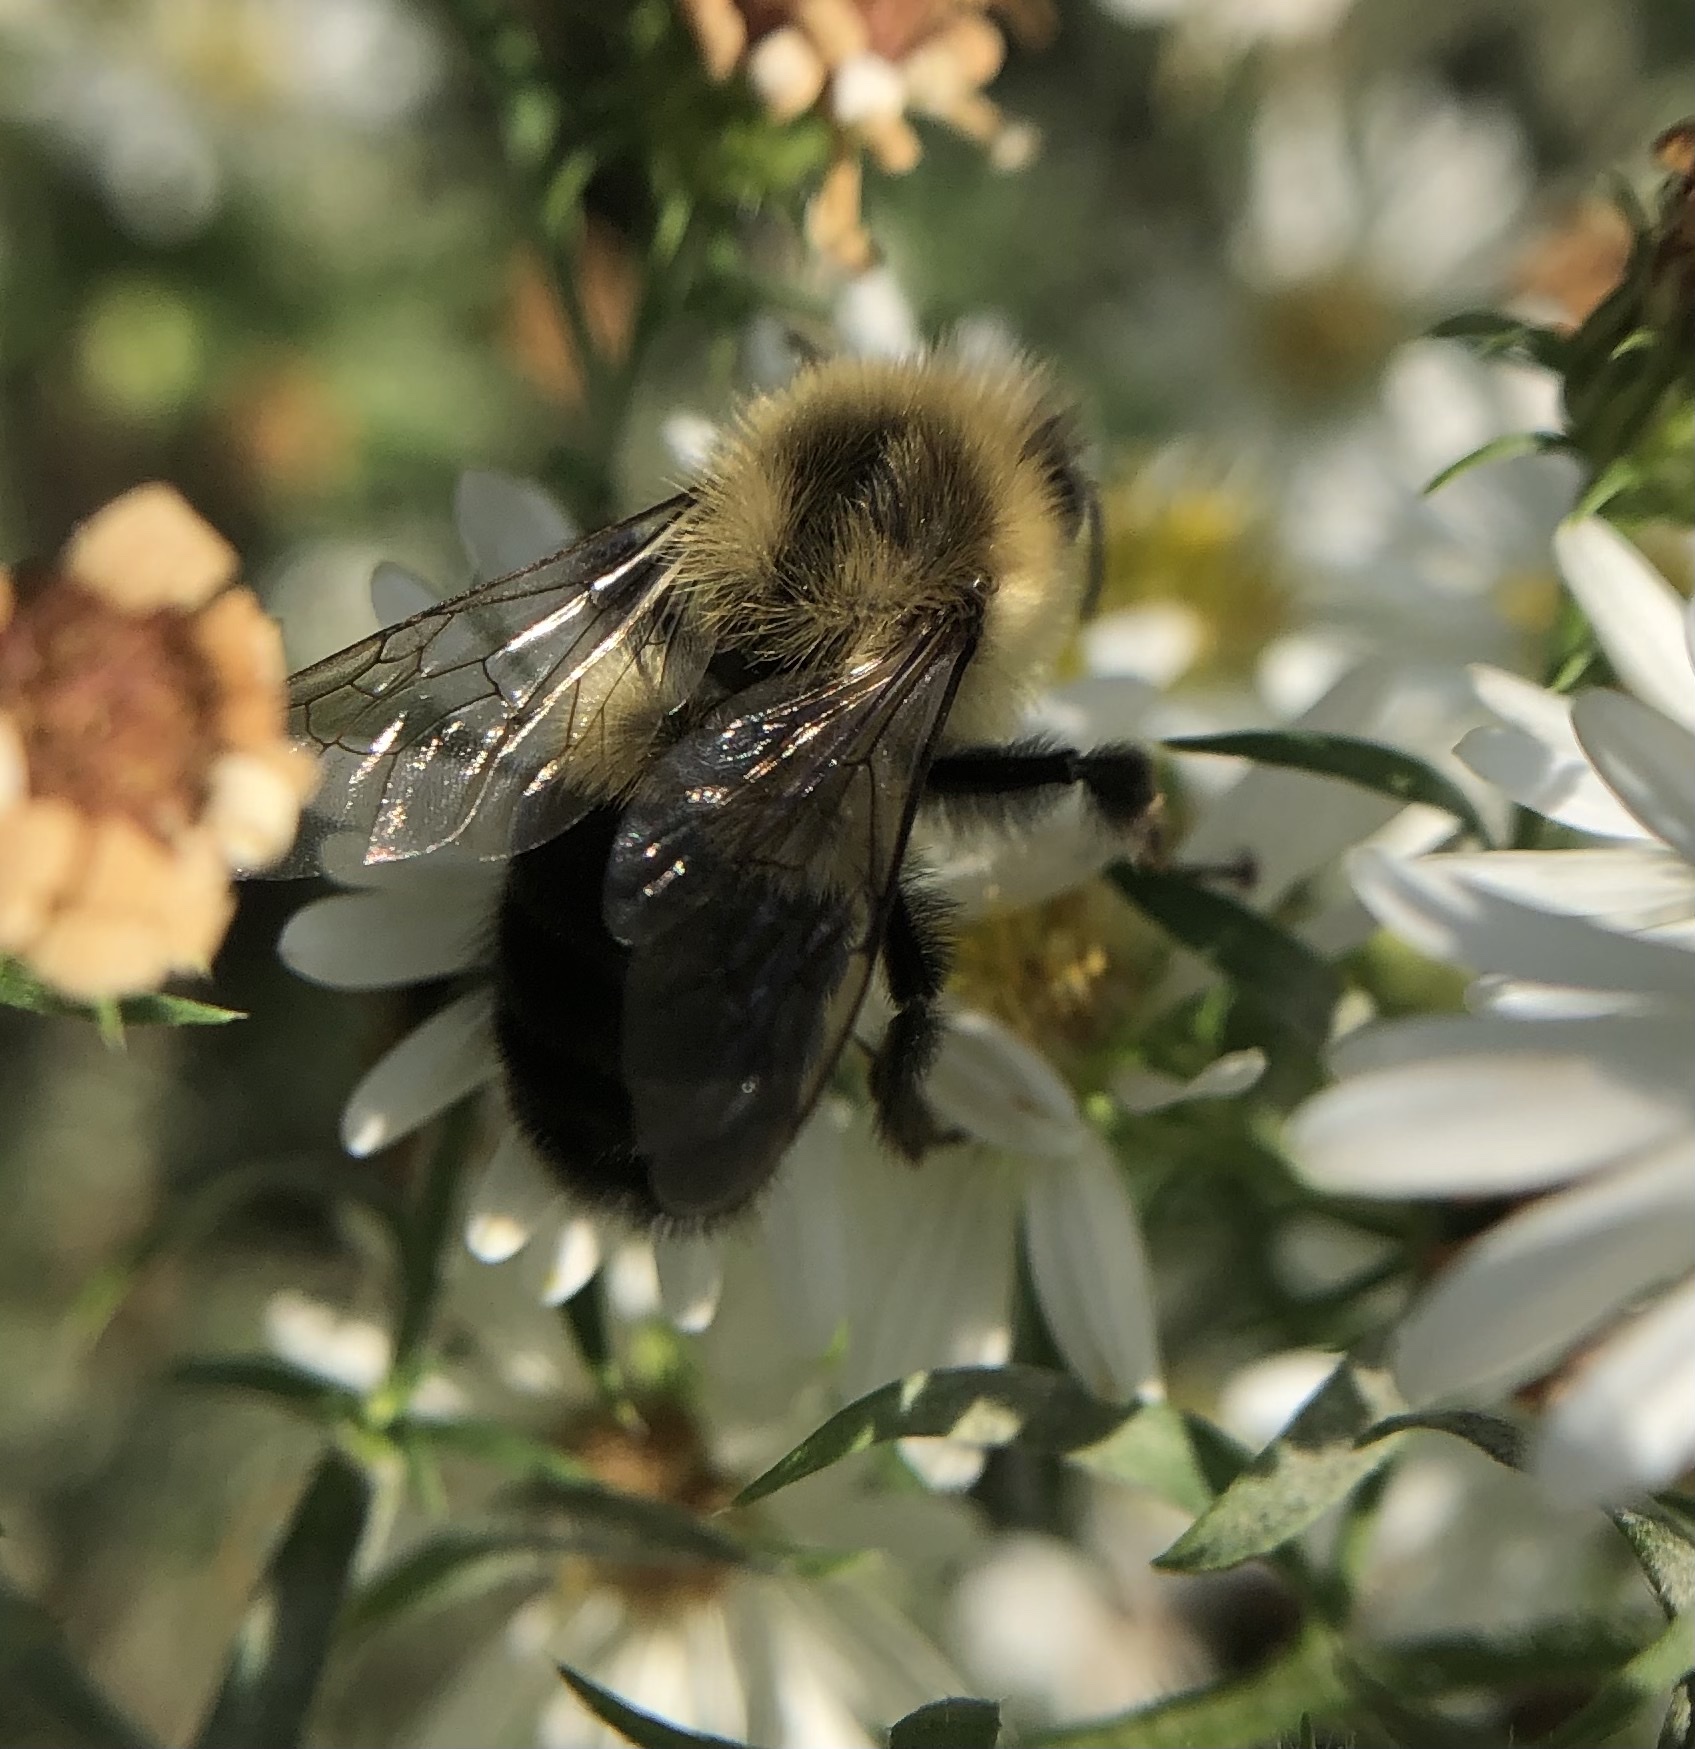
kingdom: Animalia
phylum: Arthropoda
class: Insecta
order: Hymenoptera
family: Apidae
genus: Bombus
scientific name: Bombus impatiens
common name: Common eastern bumble bee
